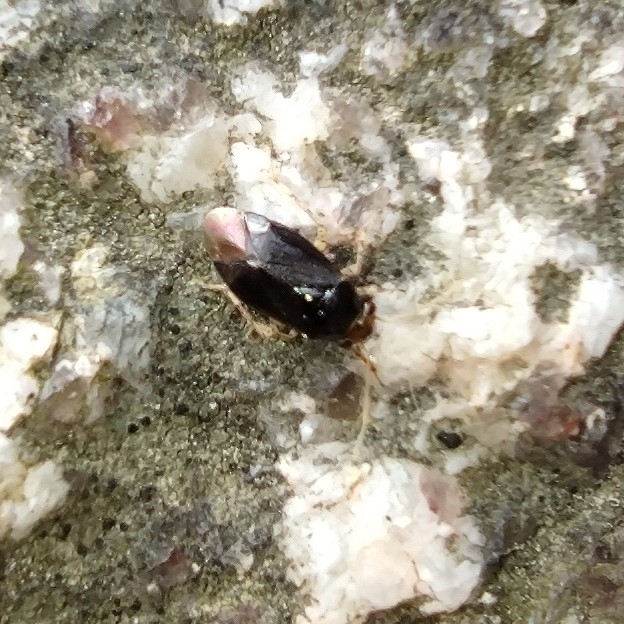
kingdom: Animalia
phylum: Arthropoda
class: Insecta
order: Hemiptera
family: Miridae
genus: Camptozygum
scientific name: Camptozygum aequale
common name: Plant bug
